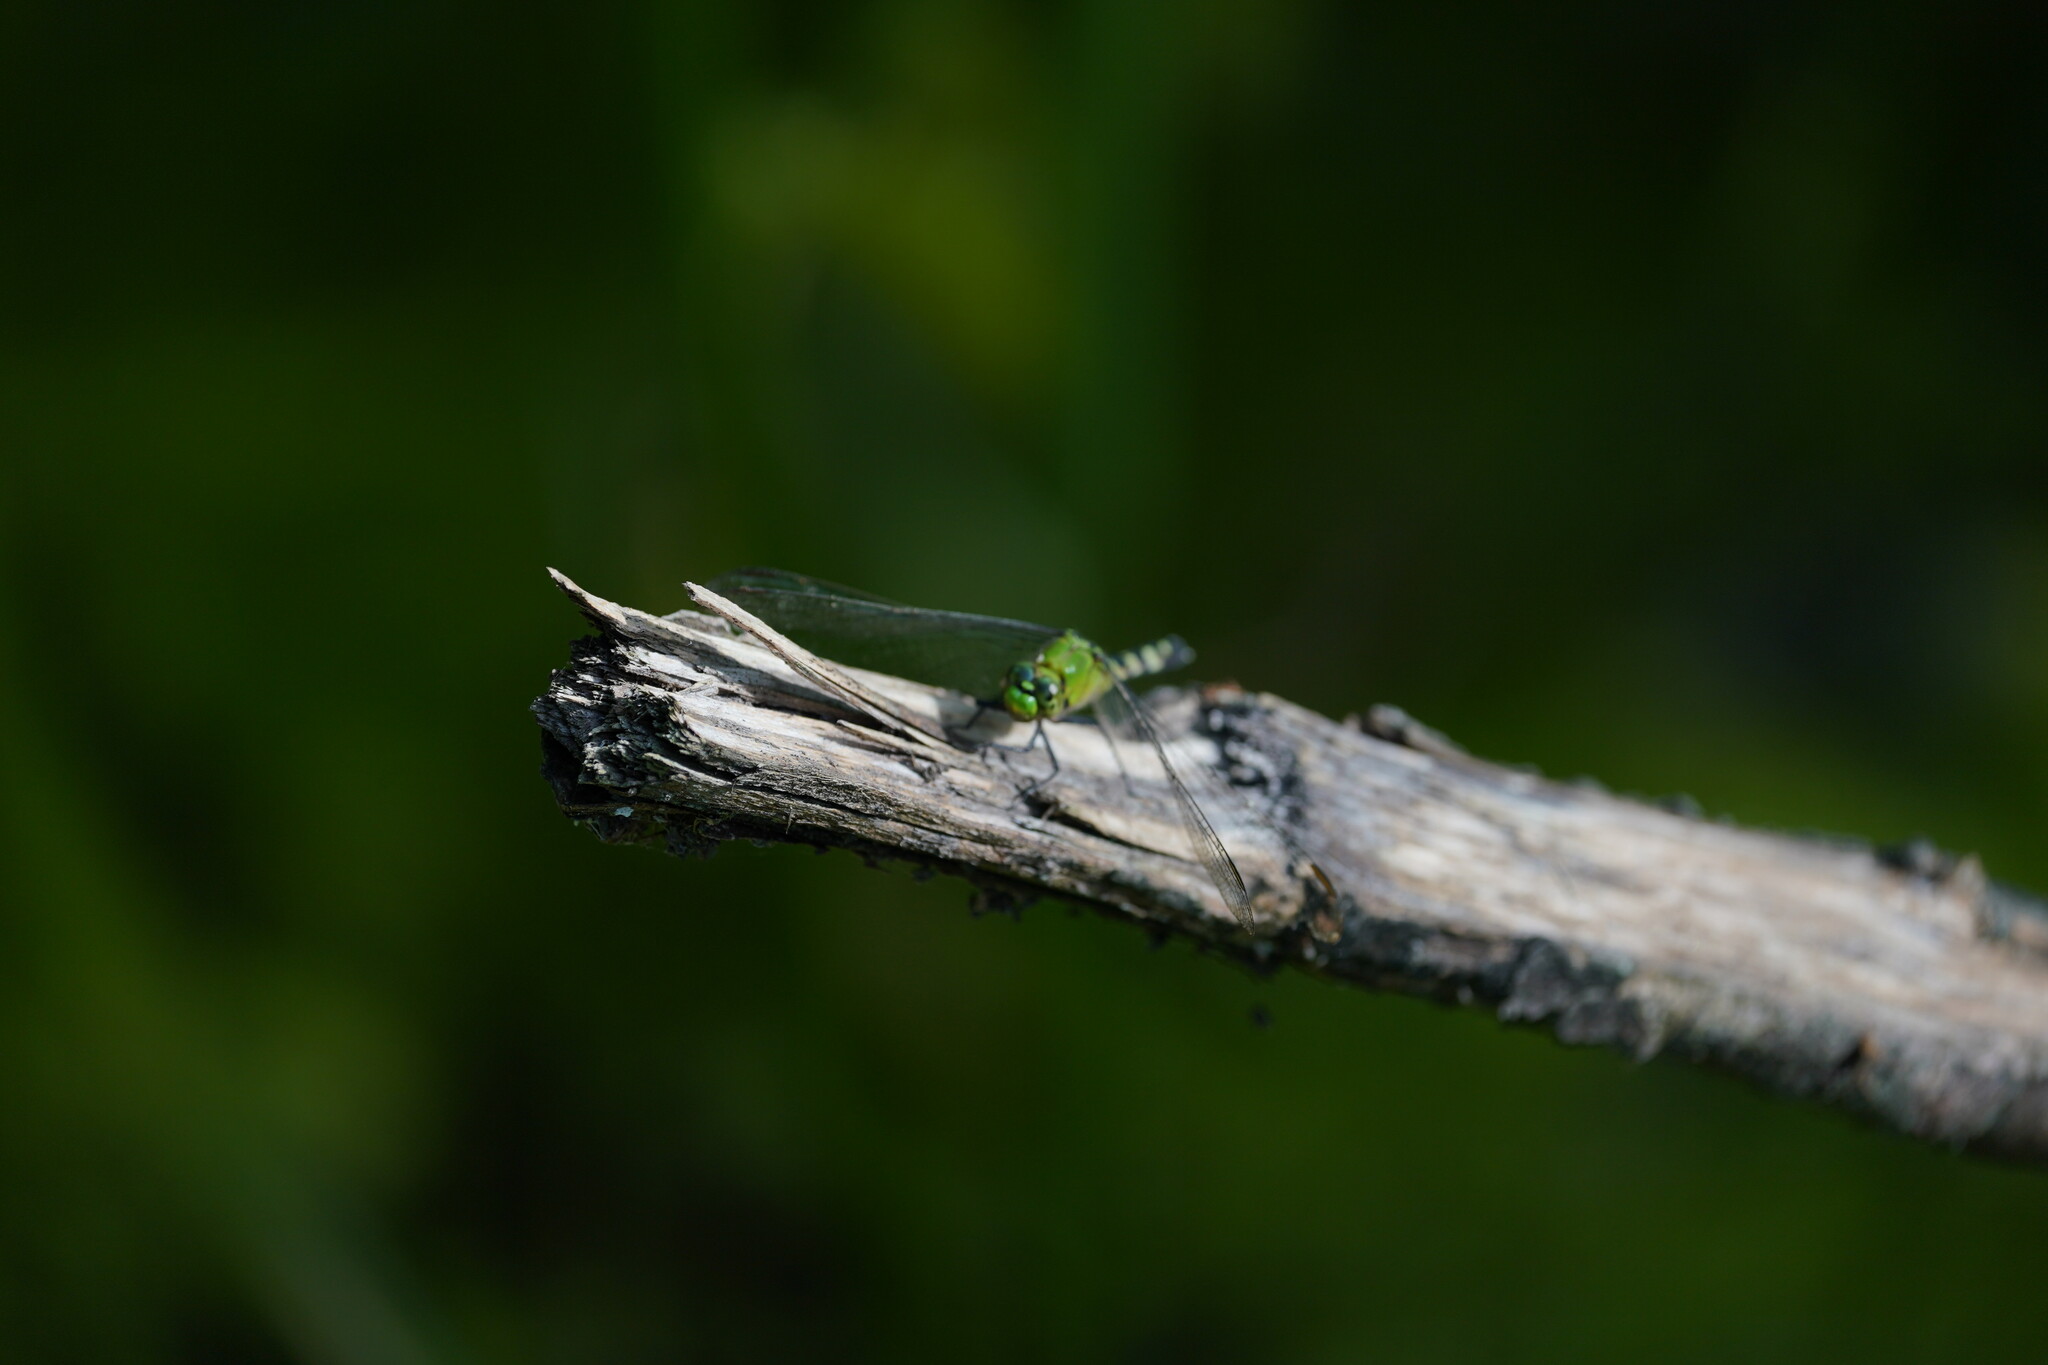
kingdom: Animalia
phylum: Arthropoda
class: Insecta
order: Odonata
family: Libellulidae
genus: Erythemis
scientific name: Erythemis simplicicollis
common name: Eastern pondhawk
